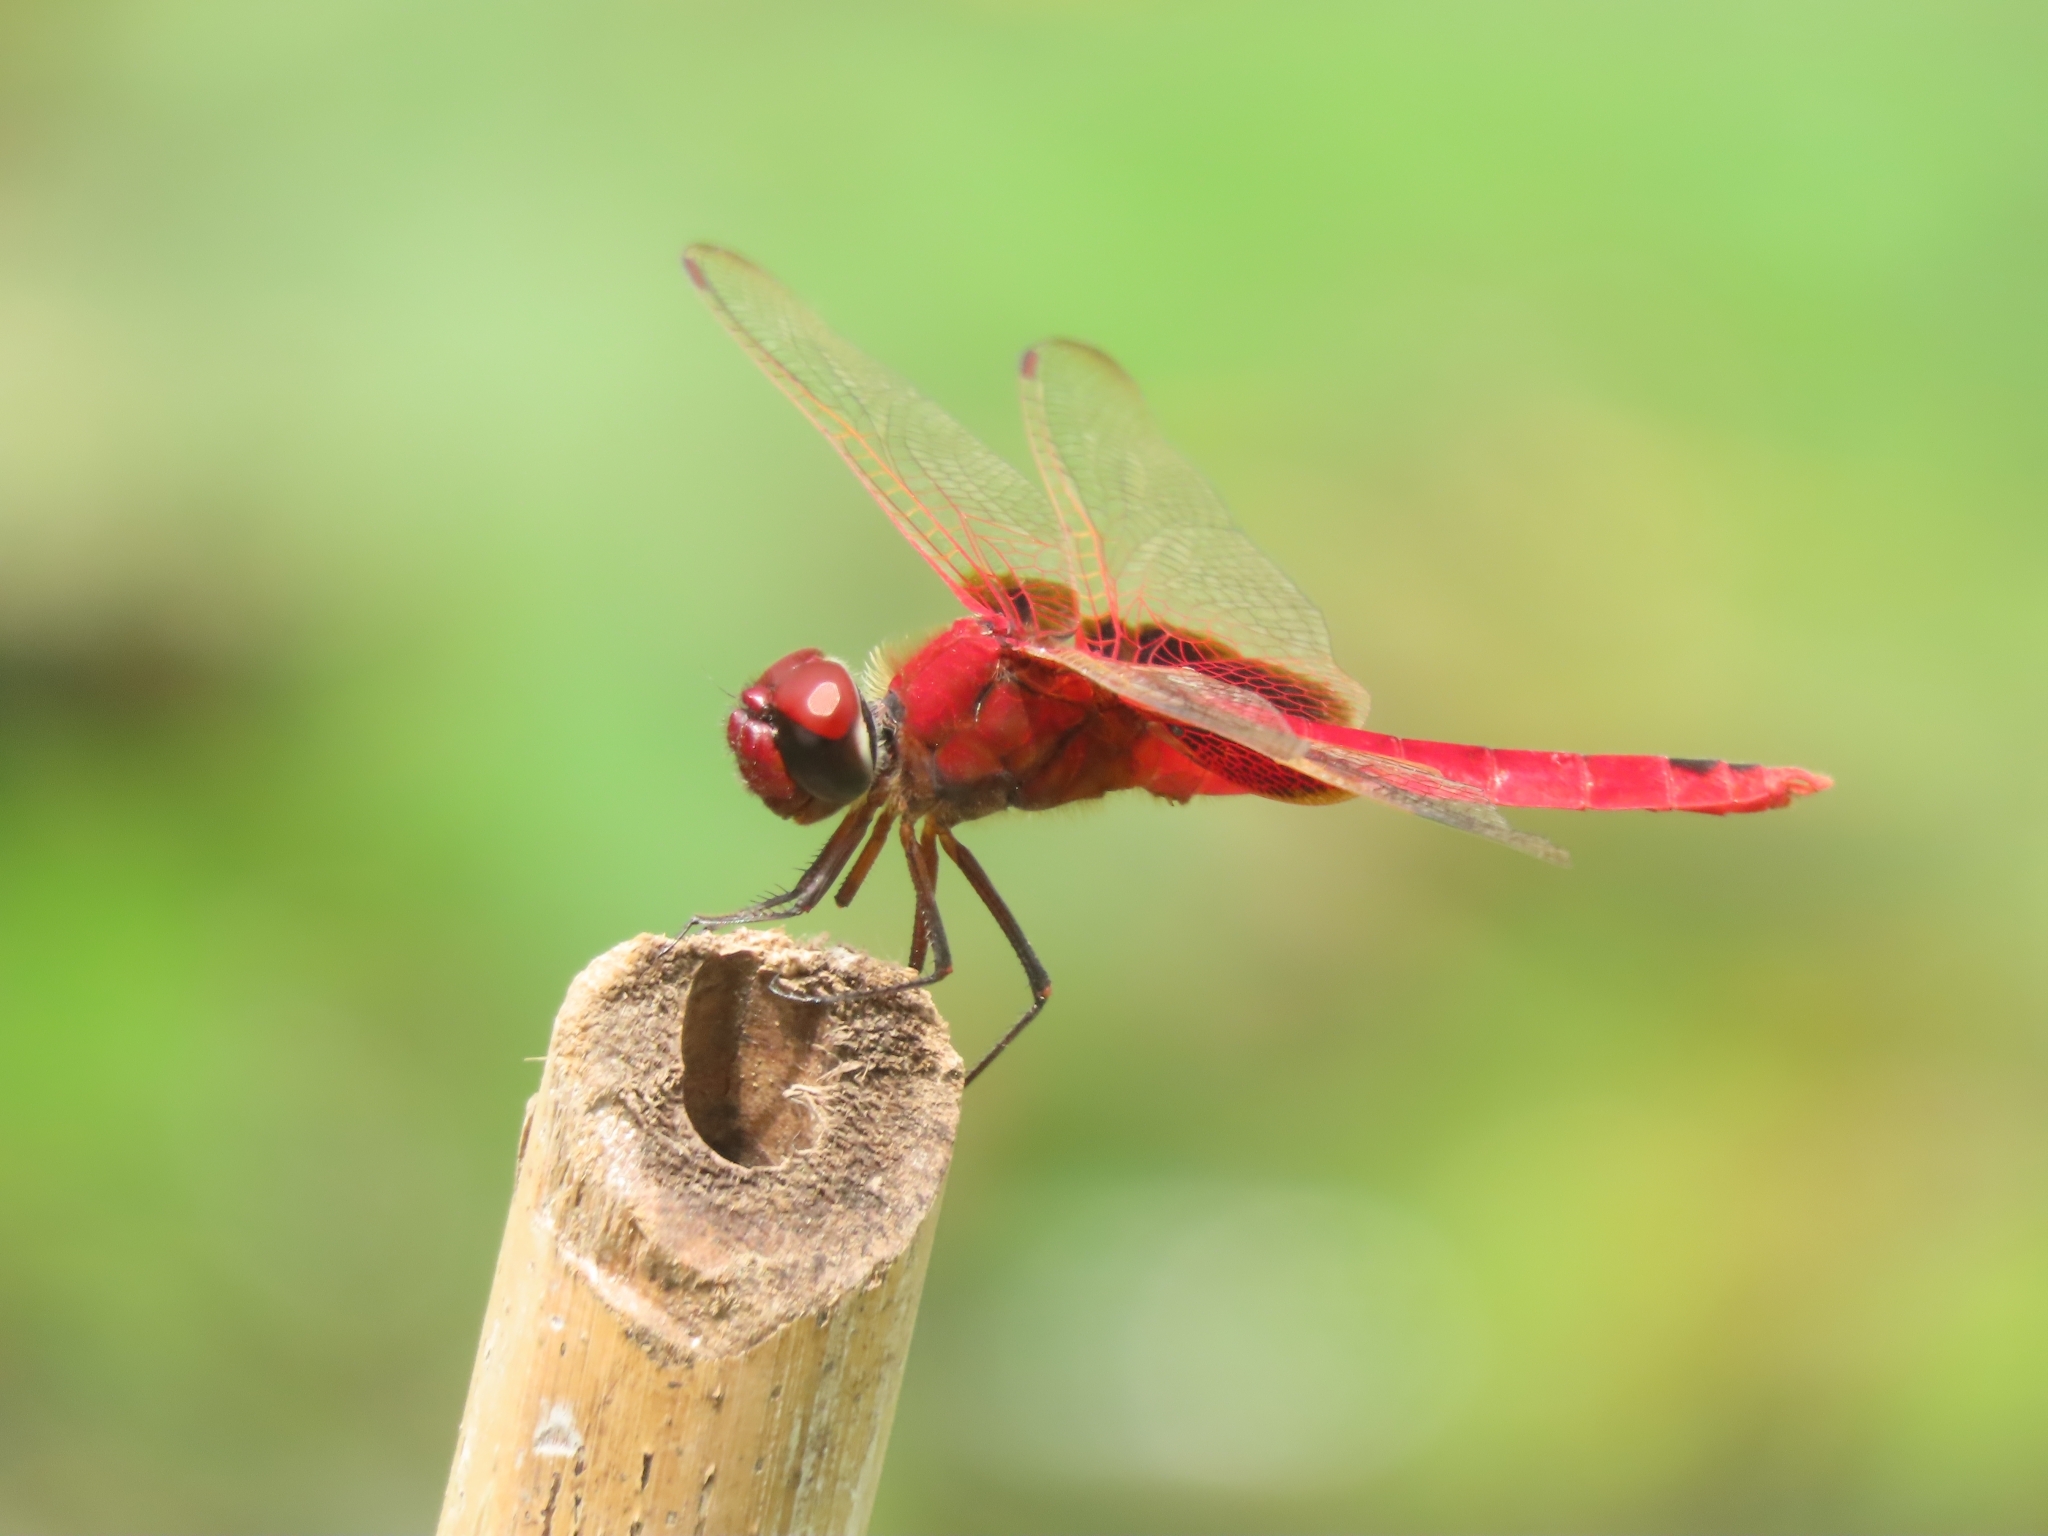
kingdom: Animalia
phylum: Arthropoda
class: Insecta
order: Odonata
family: Libellulidae
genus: Urothemis
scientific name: Urothemis signata
